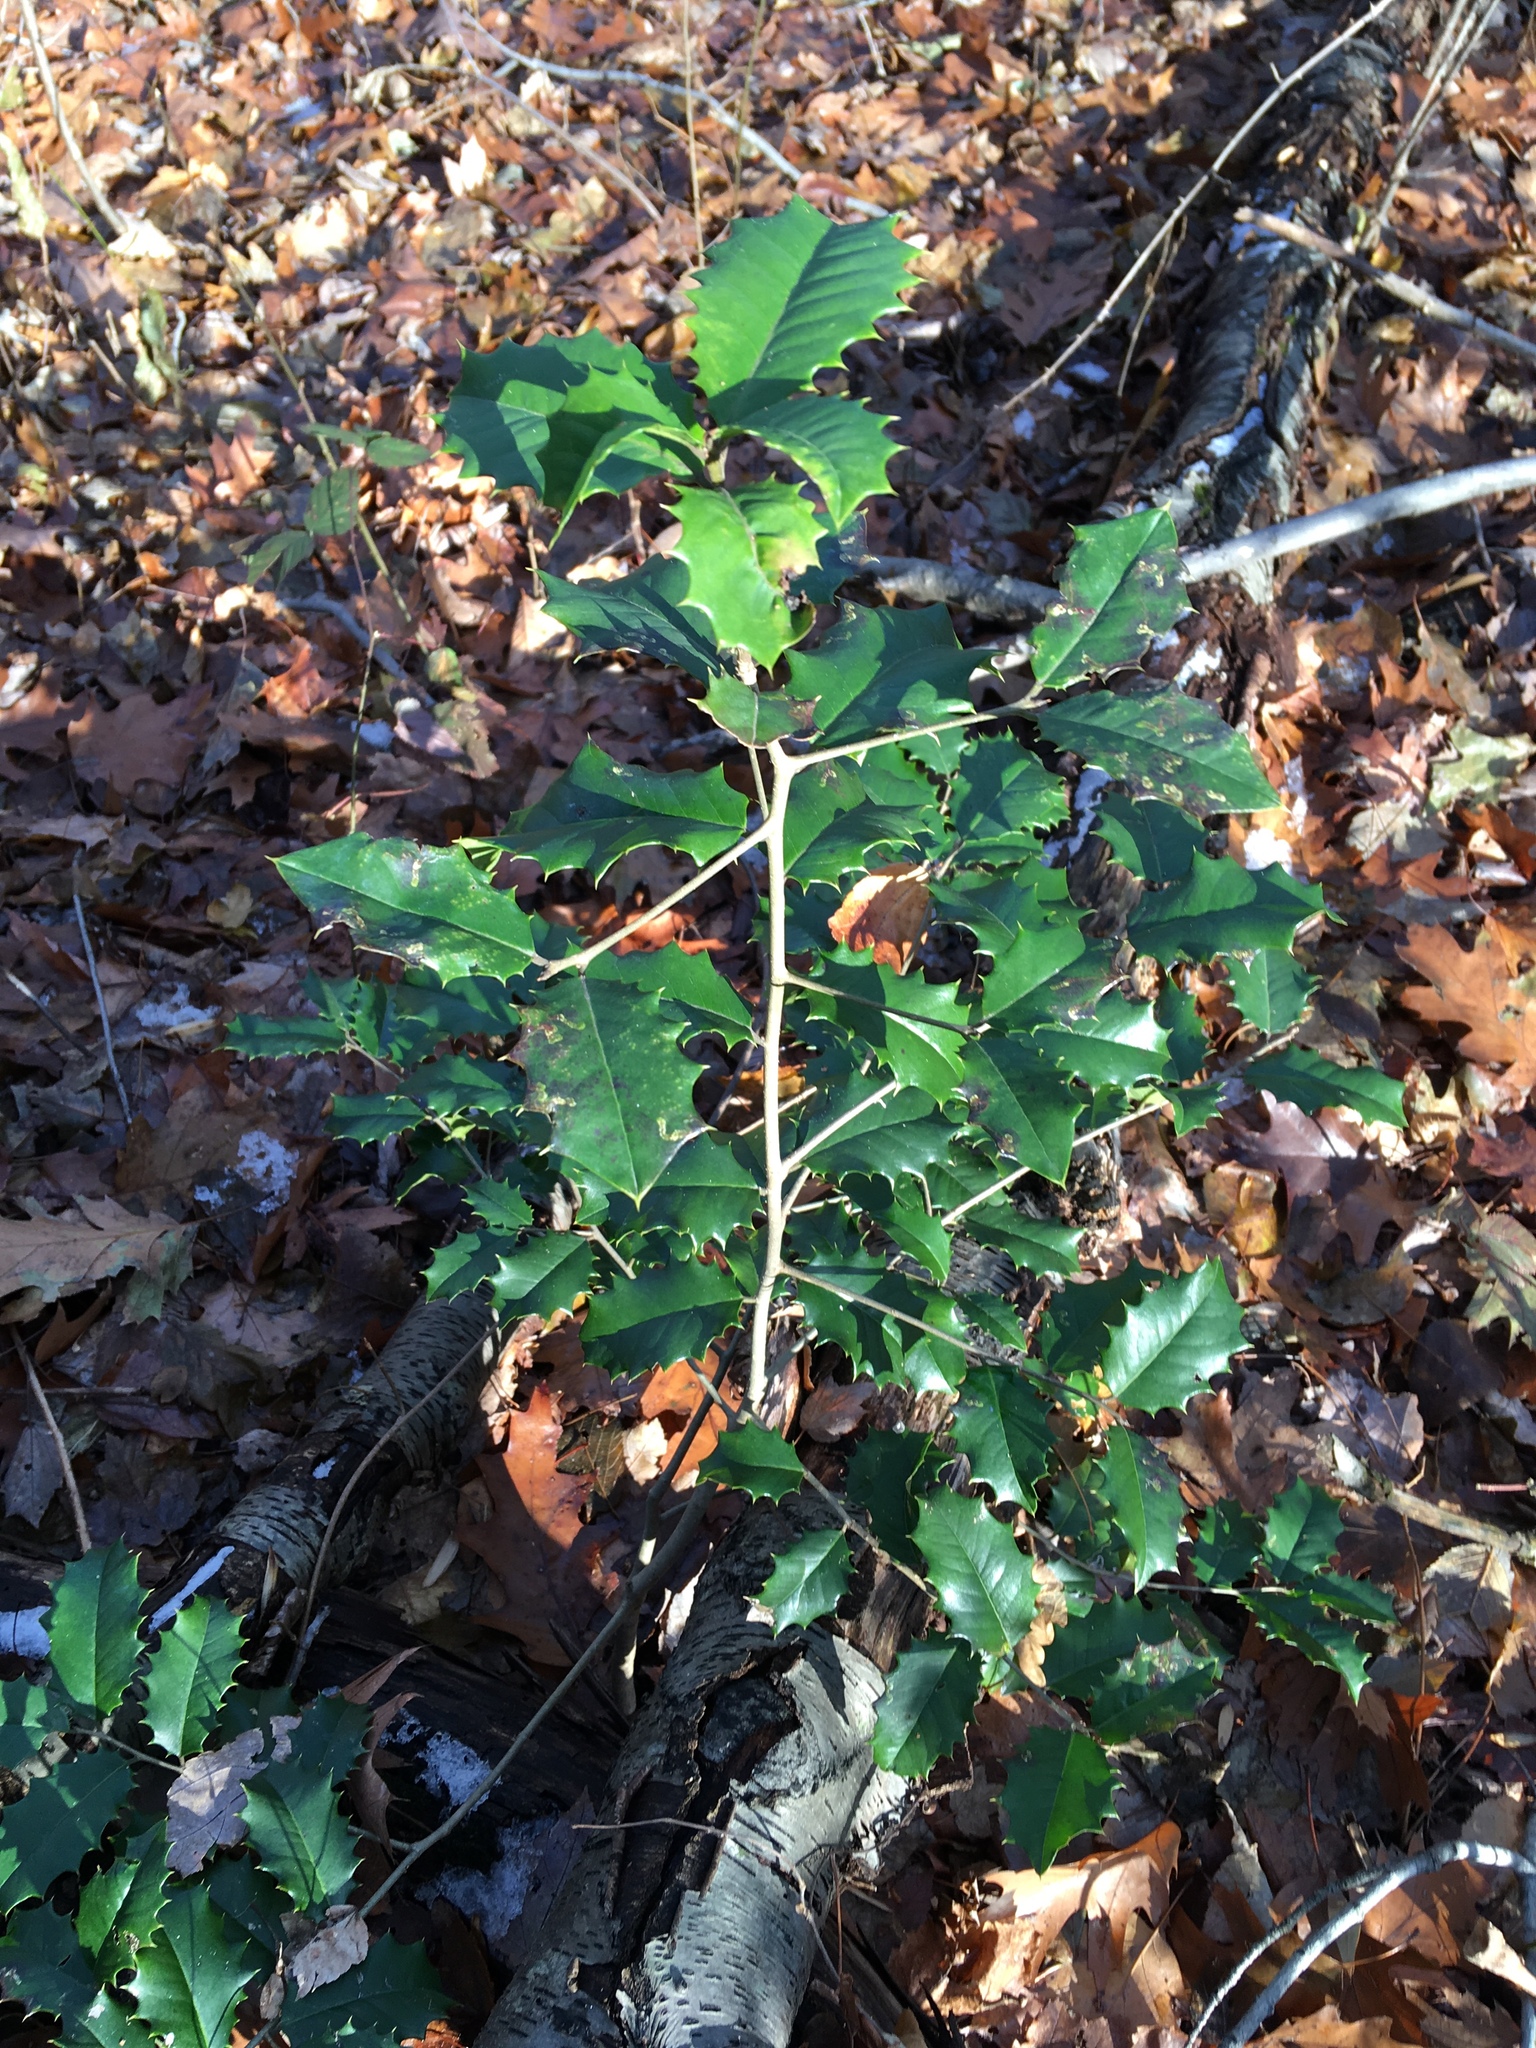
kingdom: Plantae
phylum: Tracheophyta
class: Magnoliopsida
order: Aquifoliales
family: Aquifoliaceae
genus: Ilex
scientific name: Ilex opaca
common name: American holly
